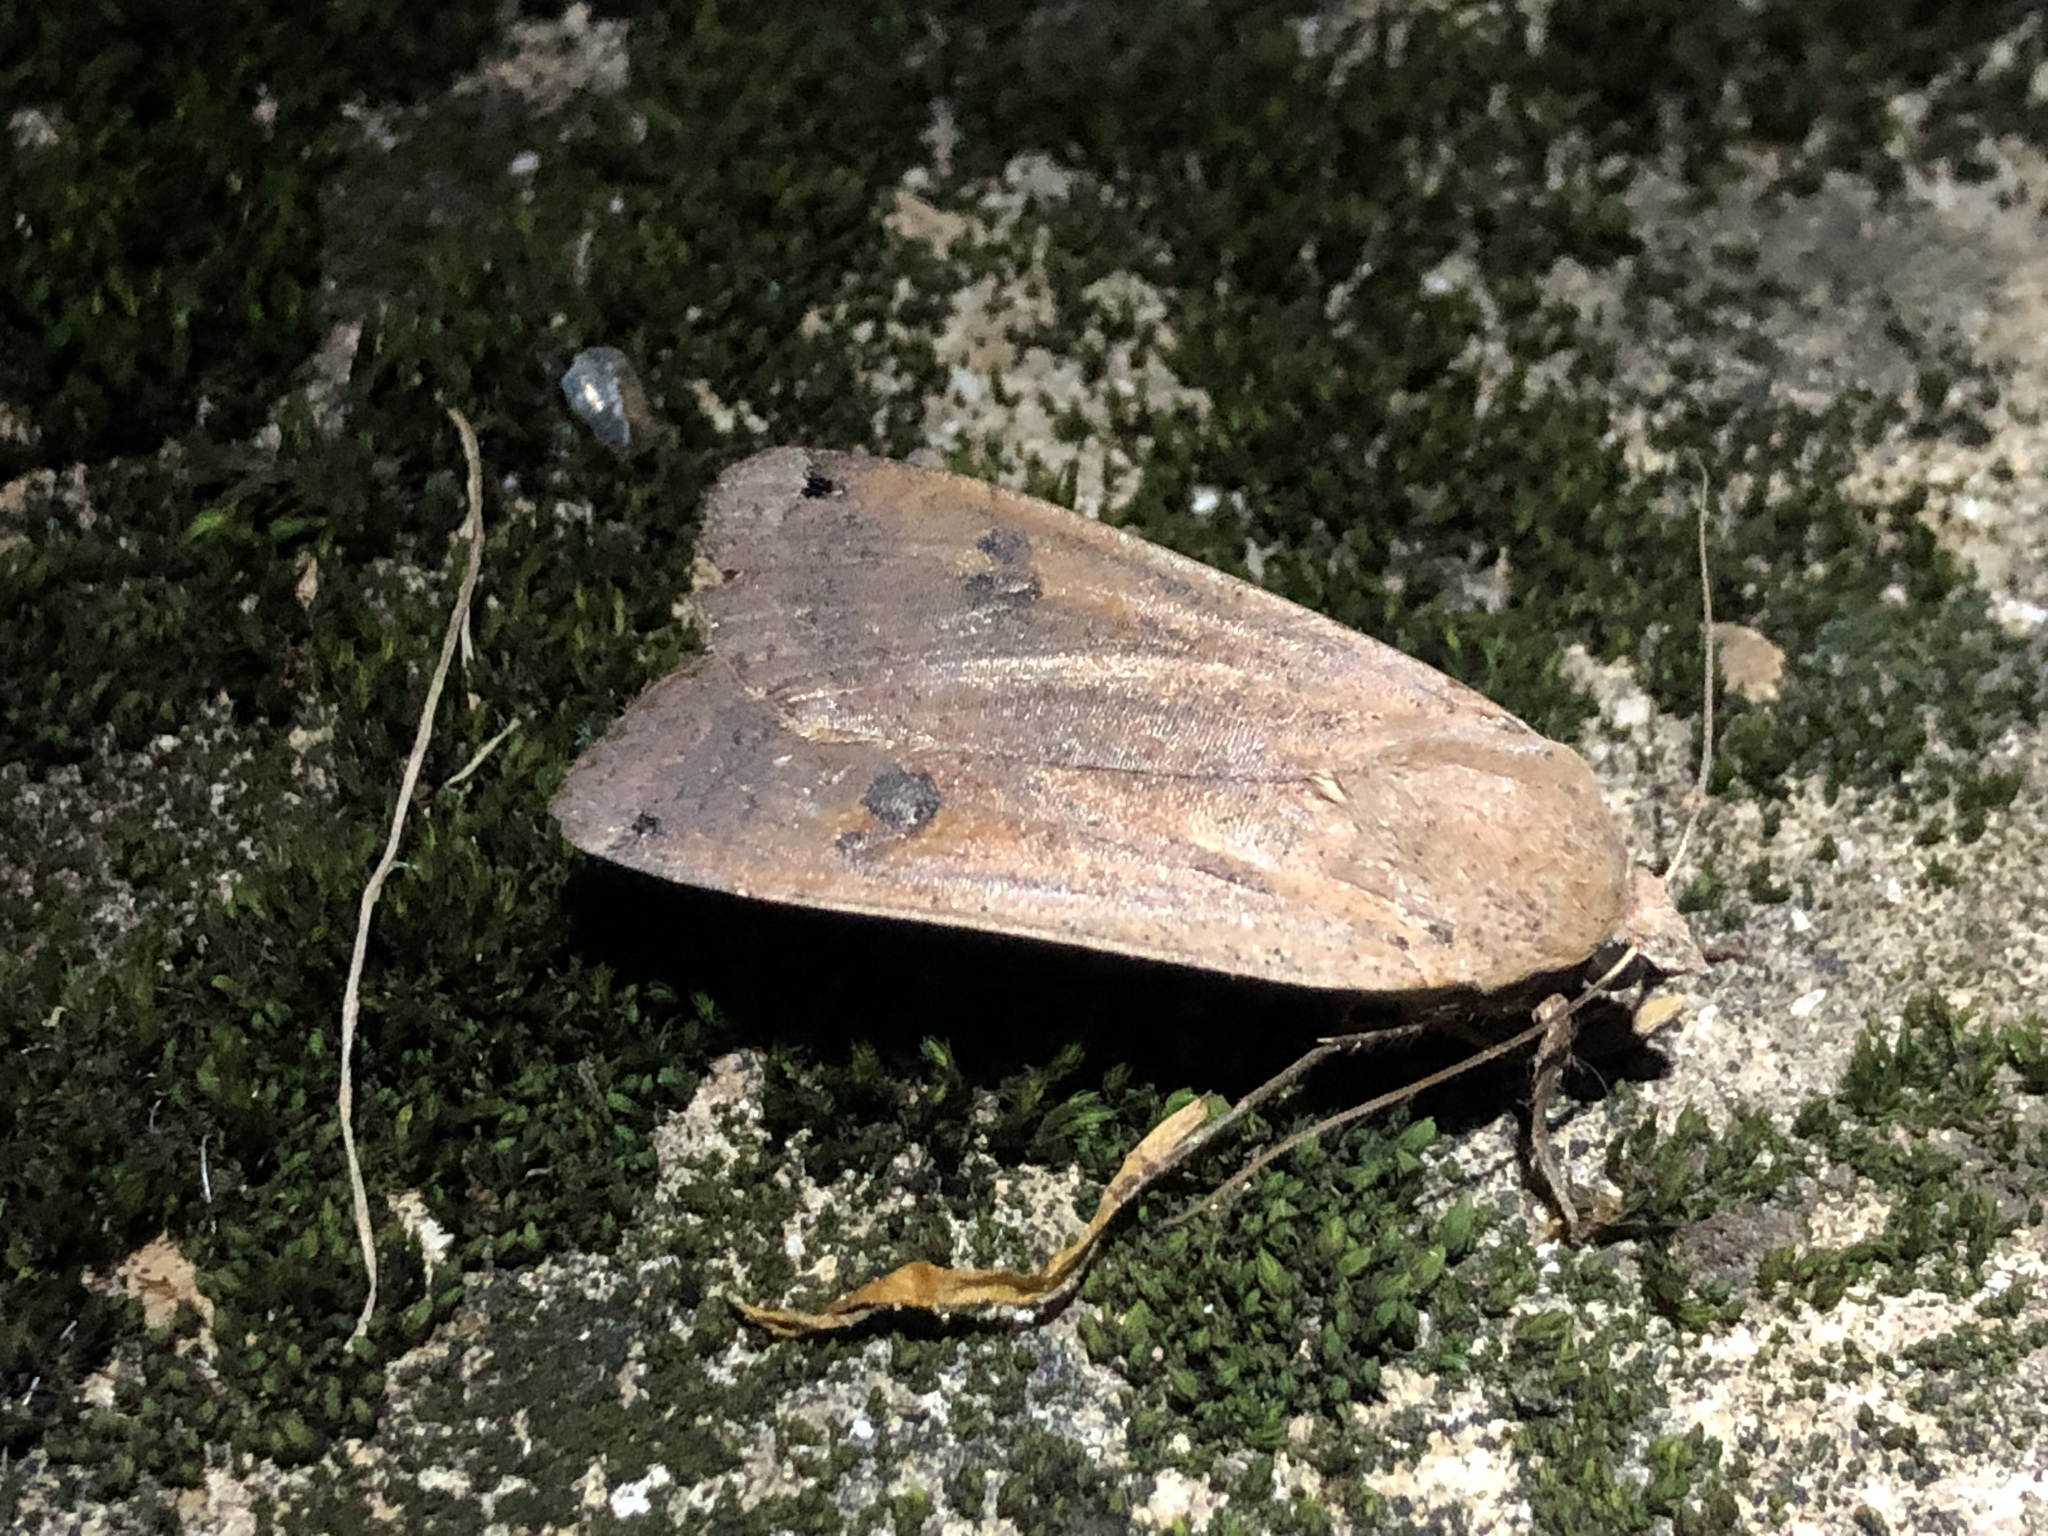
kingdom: Animalia
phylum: Arthropoda
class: Insecta
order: Lepidoptera
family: Noctuidae
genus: Noctua
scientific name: Noctua pronuba
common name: Large yellow underwing
